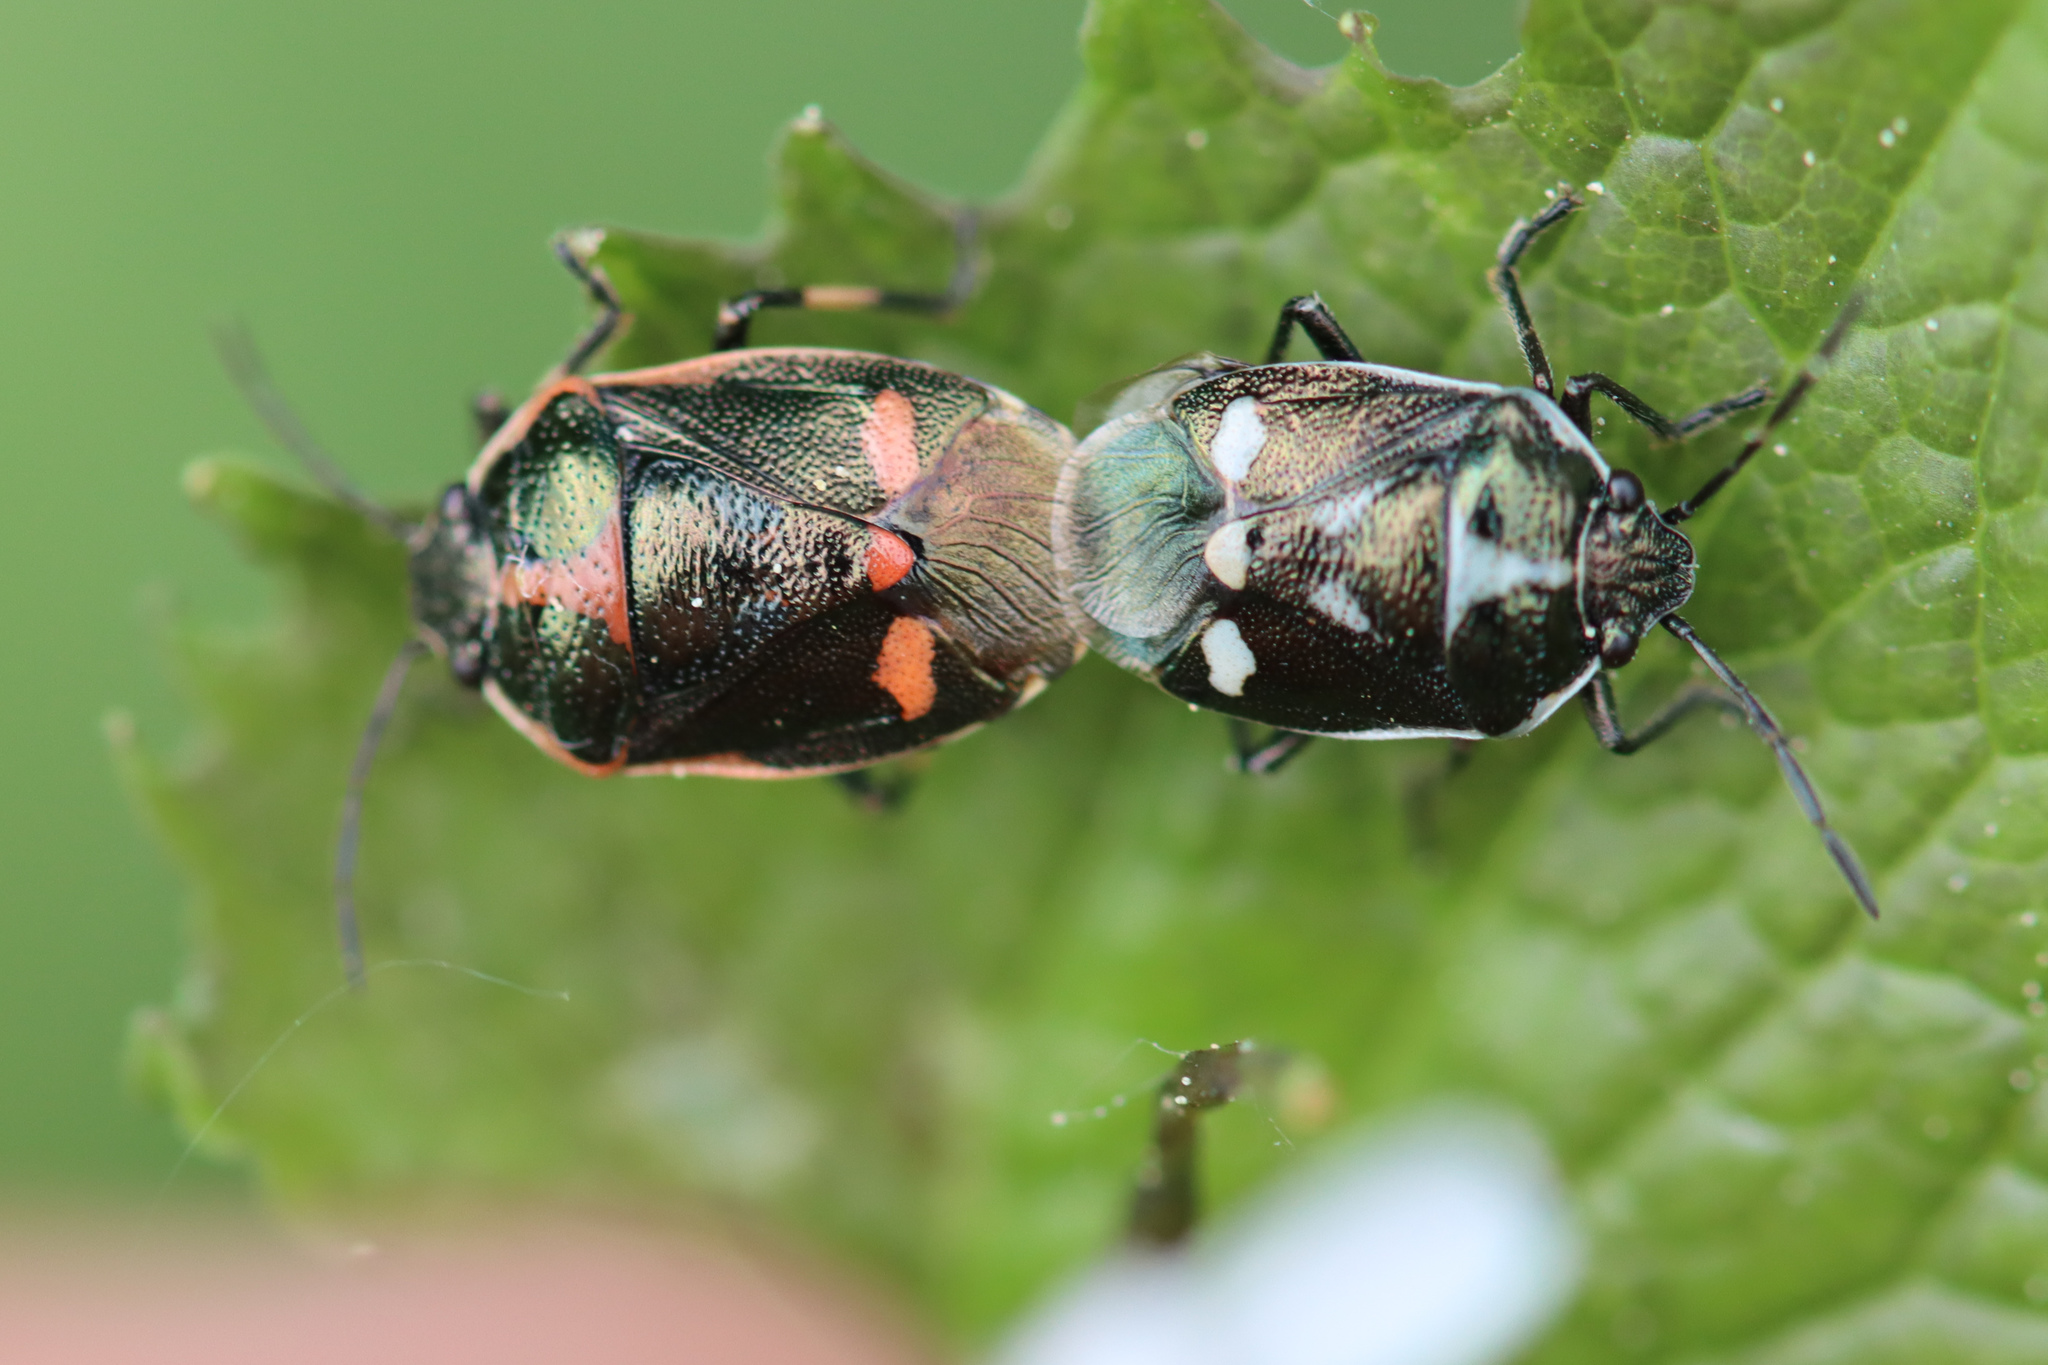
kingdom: Animalia
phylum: Arthropoda
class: Insecta
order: Hemiptera
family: Pentatomidae
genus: Eurydema
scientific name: Eurydema oleracea
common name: Cabbage bug
